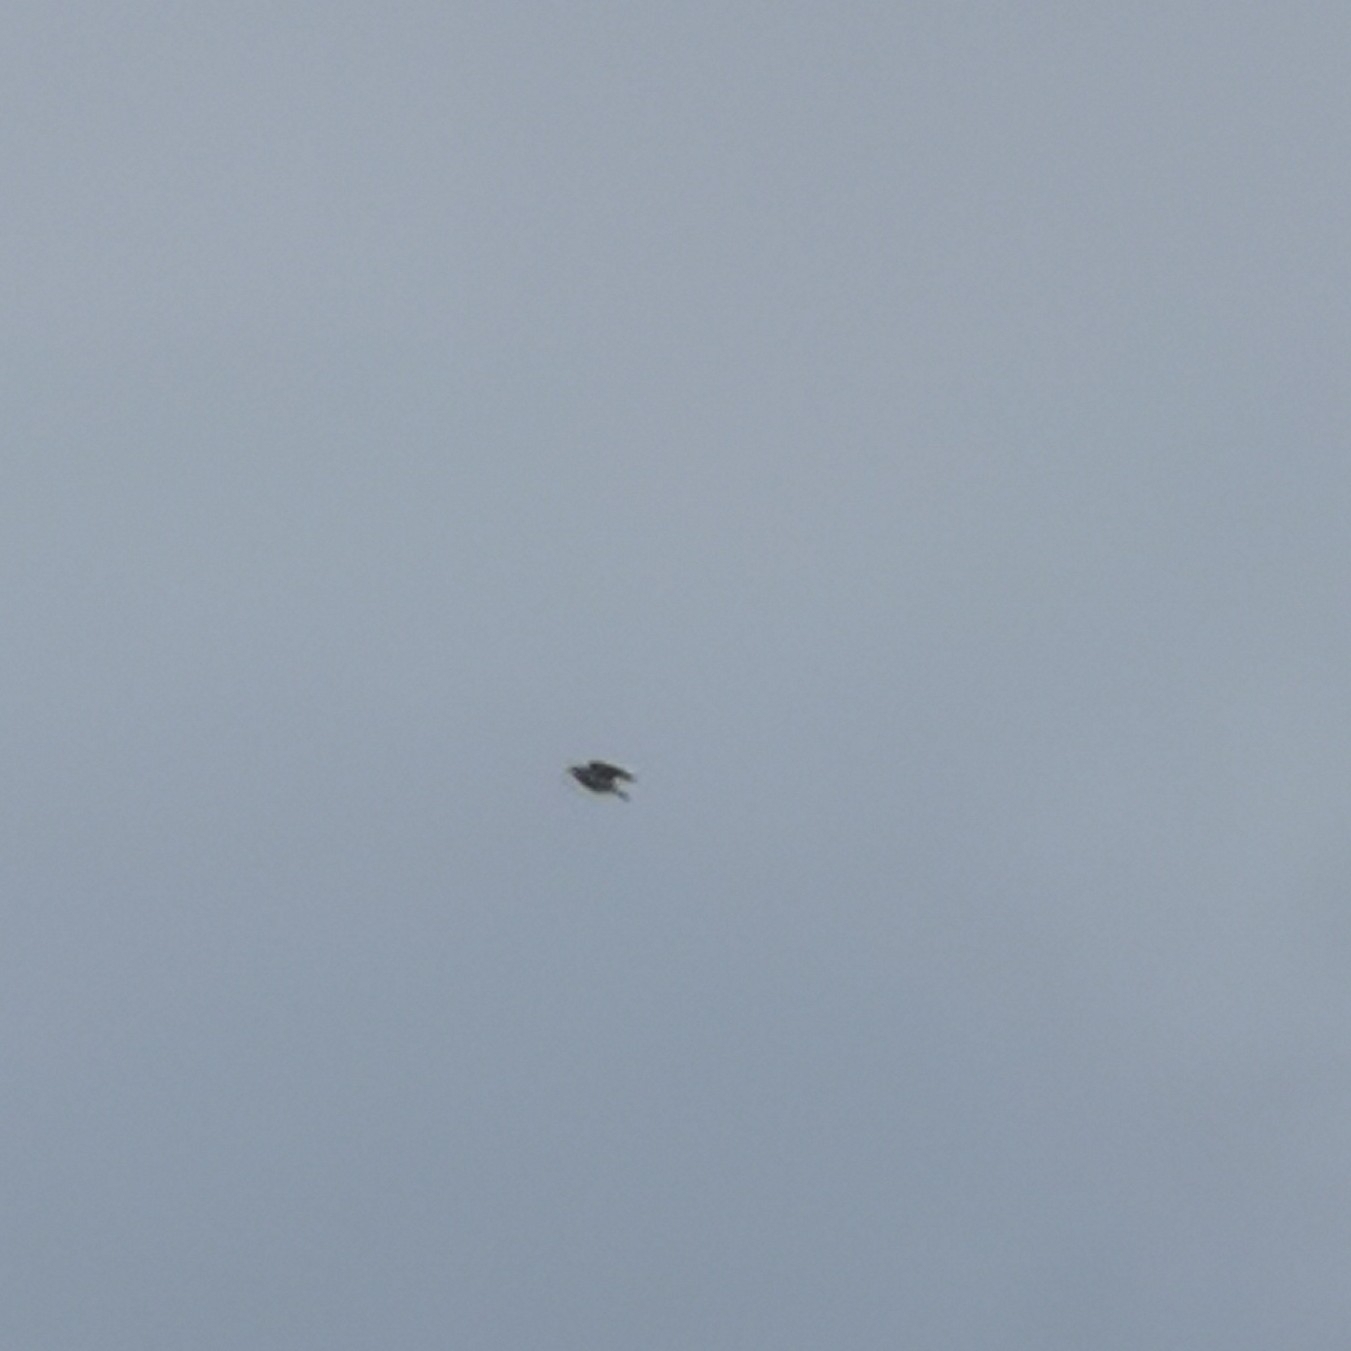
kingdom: Animalia
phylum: Chordata
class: Aves
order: Passeriformes
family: Alaudidae
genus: Alauda
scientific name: Alauda arvensis
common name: Eurasian skylark
